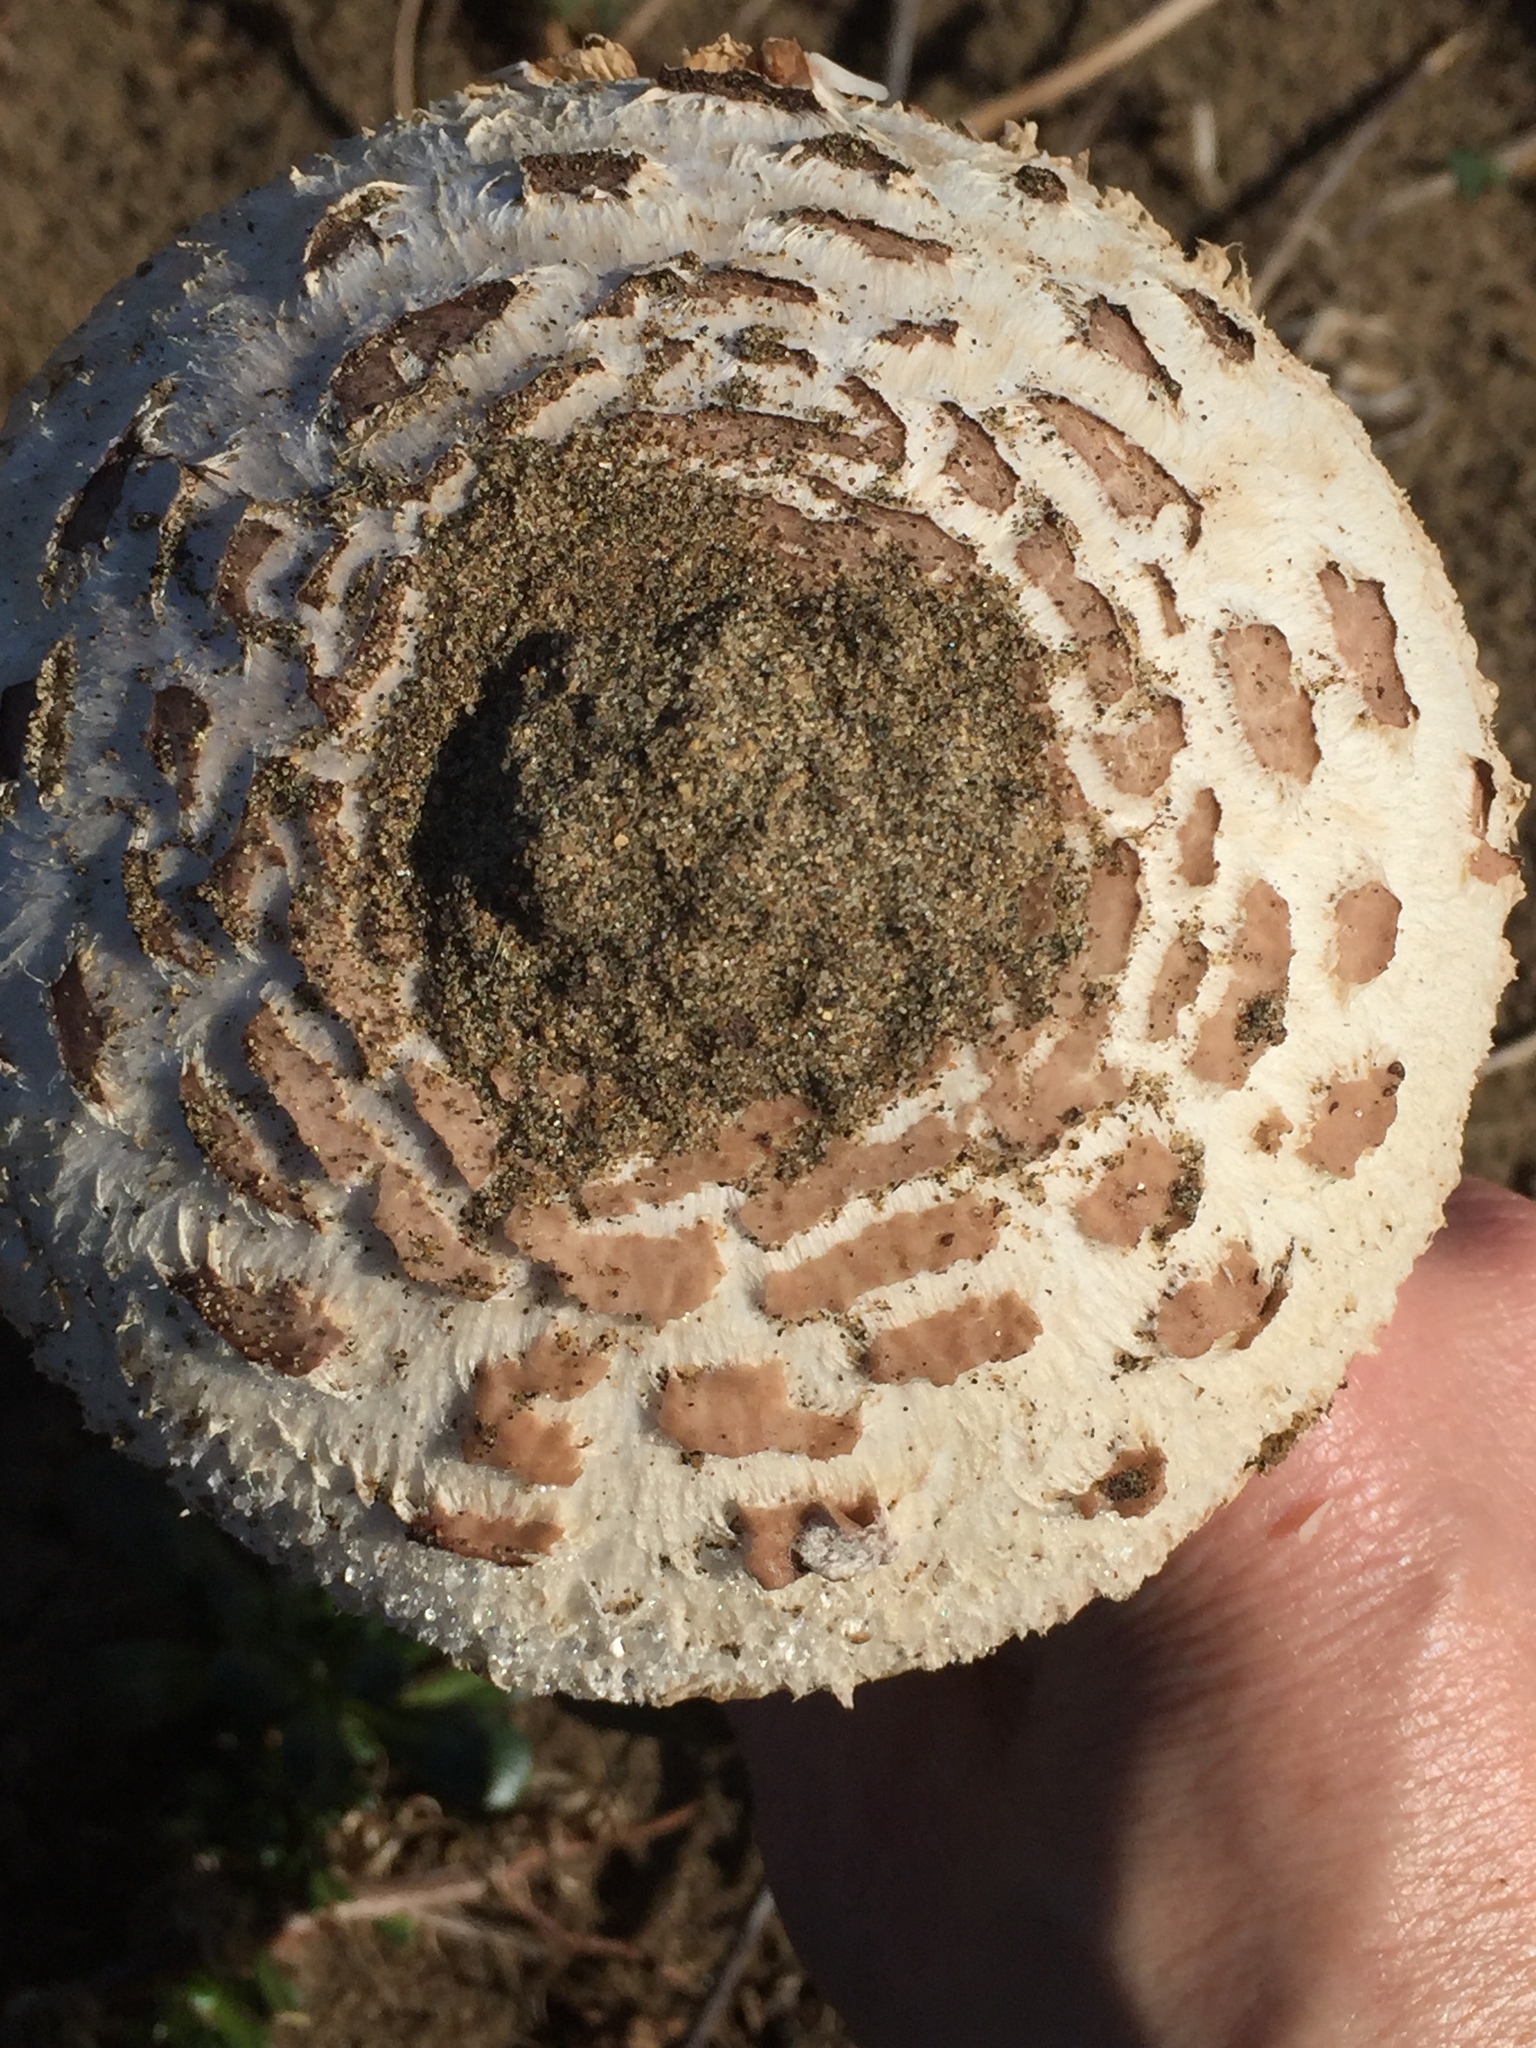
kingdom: Fungi
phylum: Basidiomycota
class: Agaricomycetes
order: Agaricales
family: Agaricaceae
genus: Chlorophyllum
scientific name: Chlorophyllum brunneum
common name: Brown parasol
